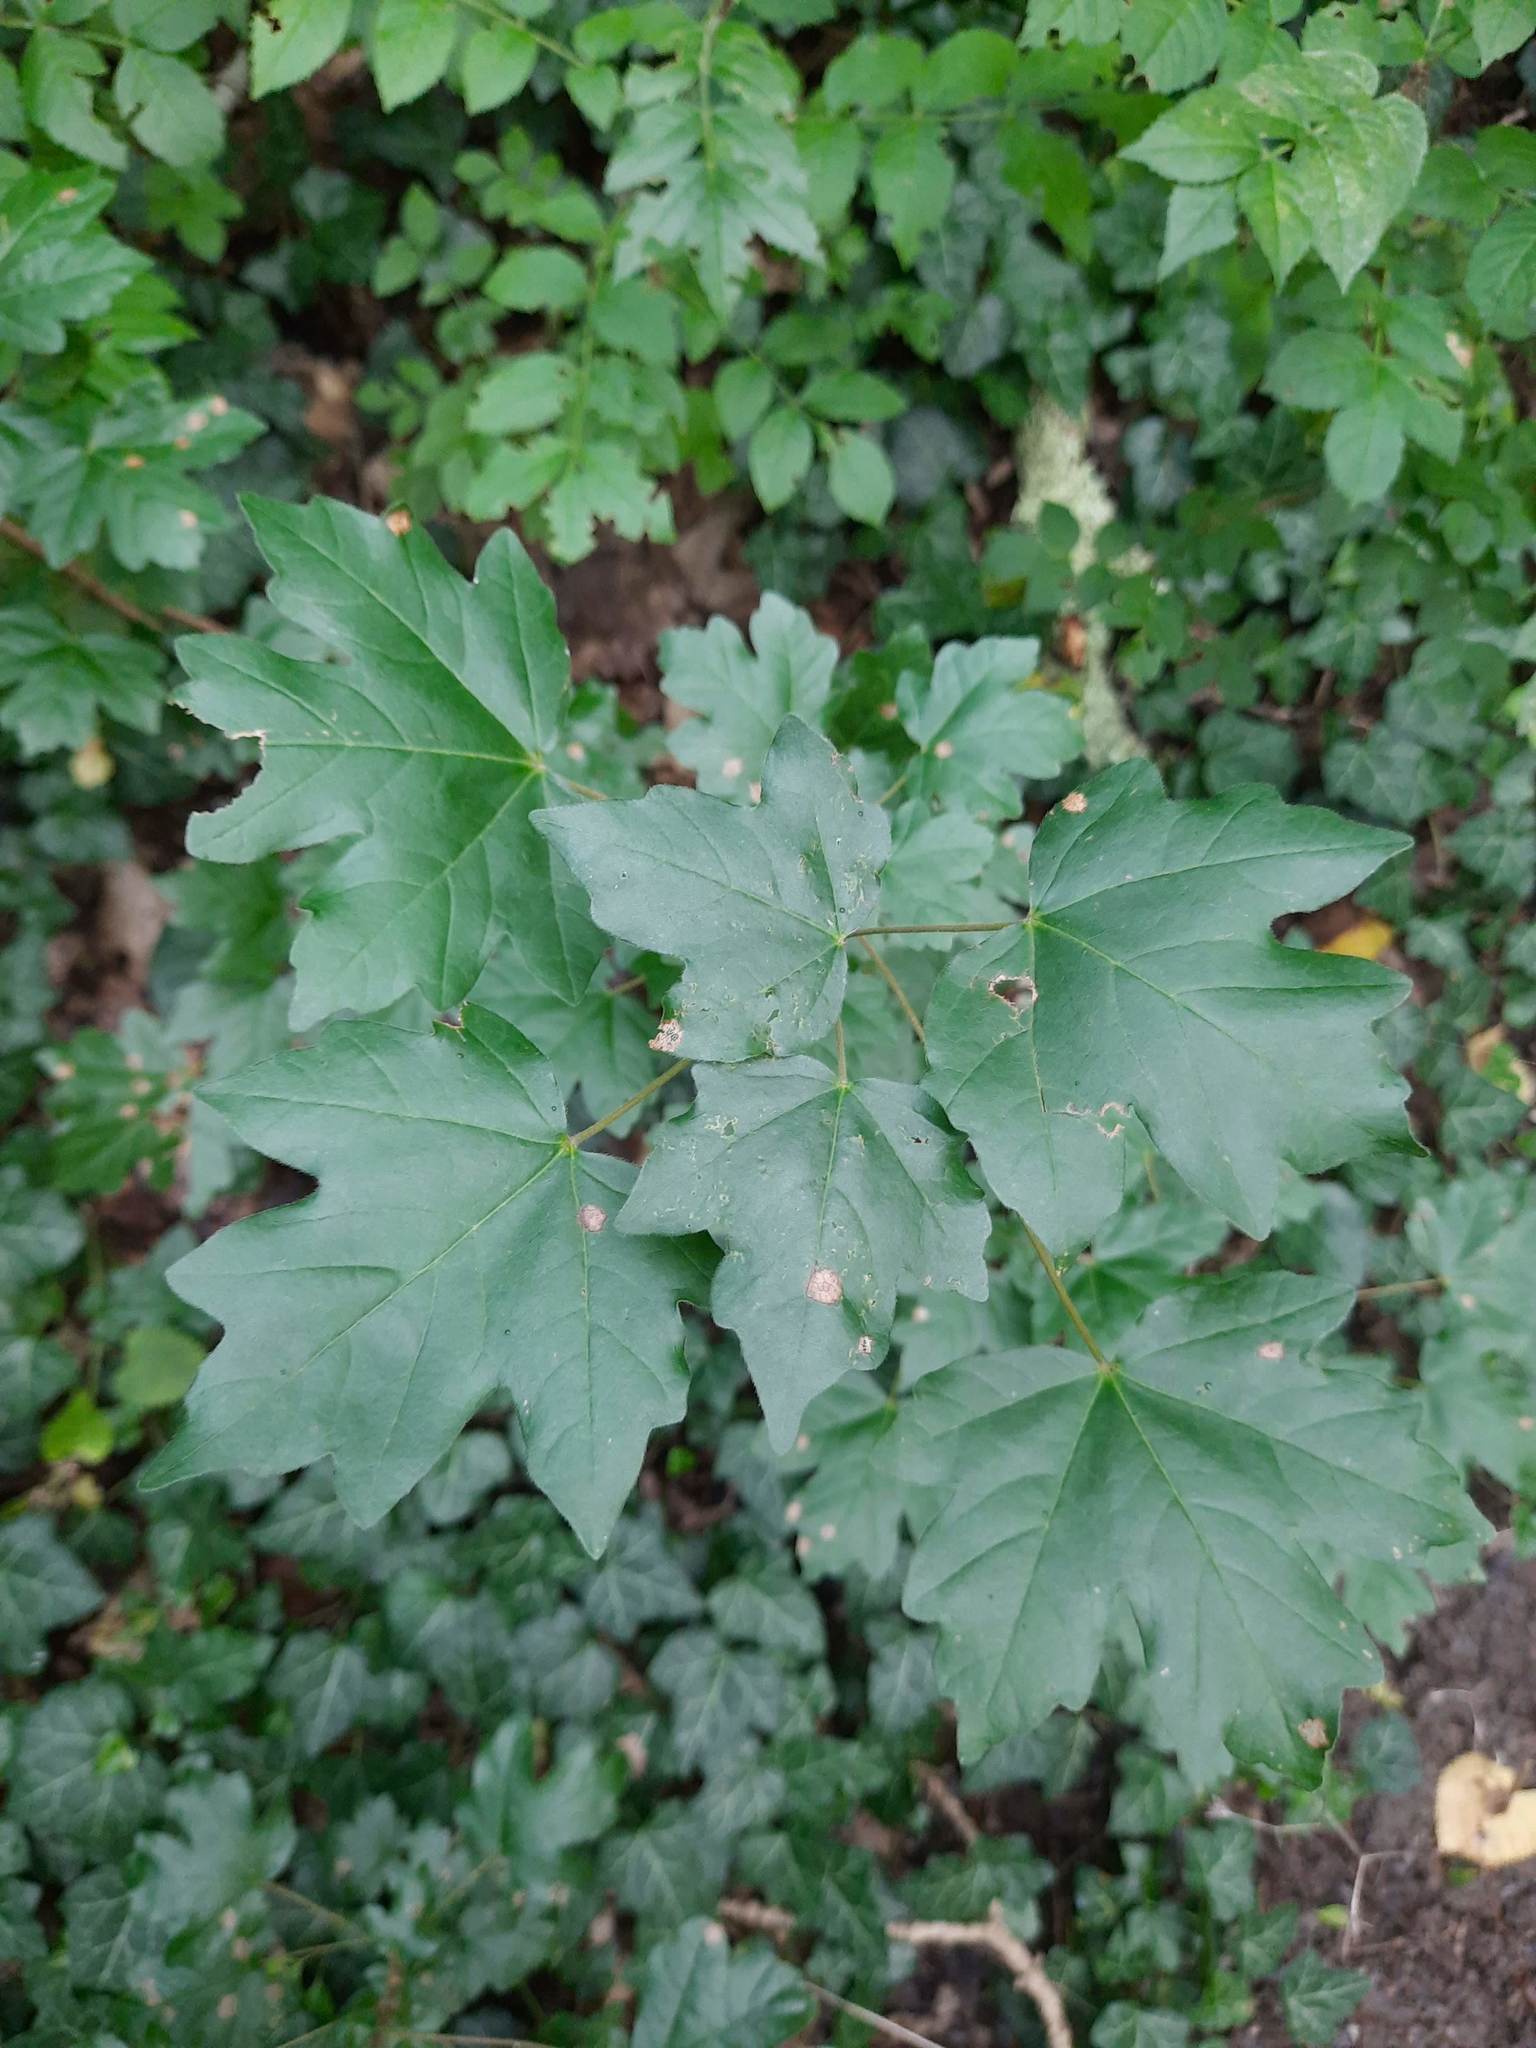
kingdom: Plantae
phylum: Tracheophyta
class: Magnoliopsida
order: Sapindales
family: Sapindaceae
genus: Acer
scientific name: Acer campestre
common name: Field maple
